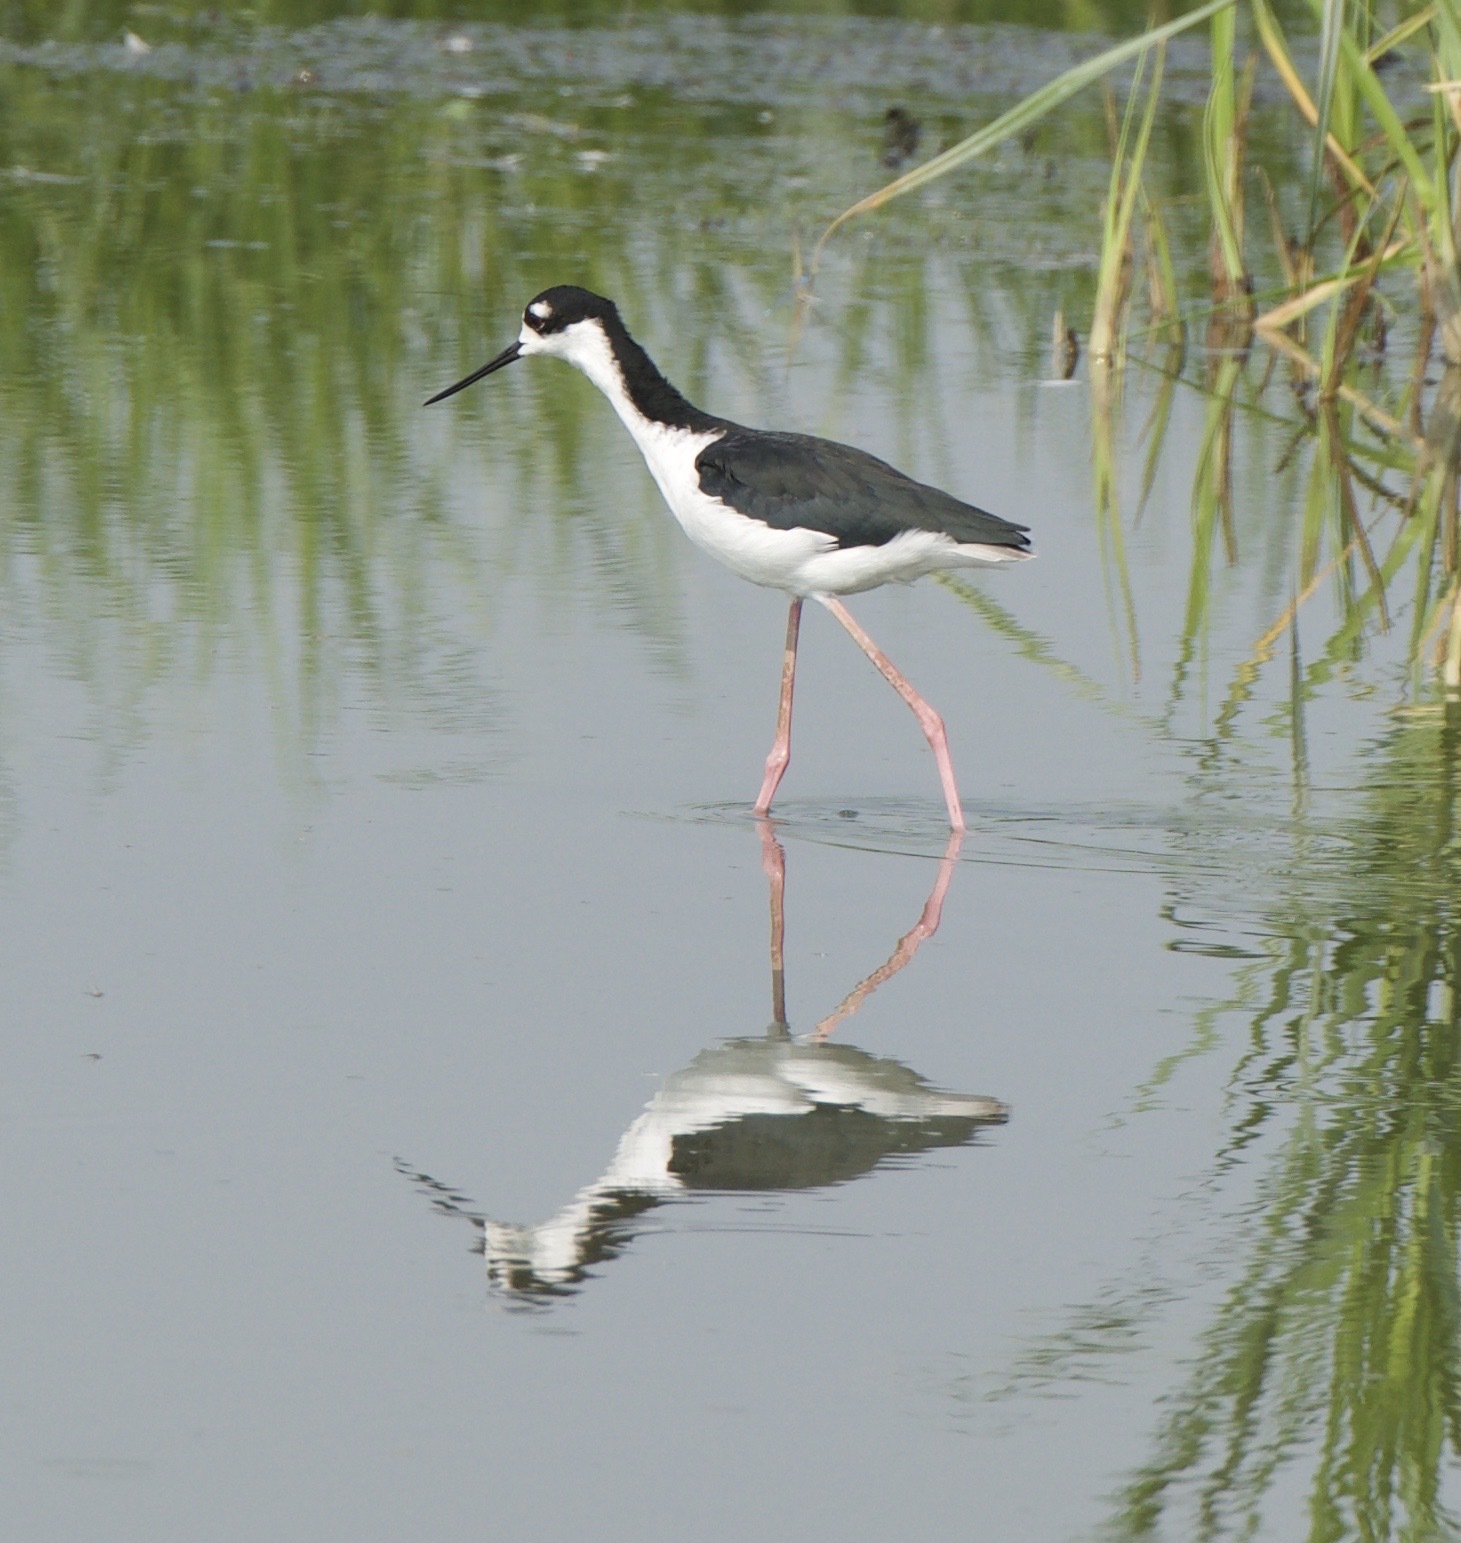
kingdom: Animalia
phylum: Chordata
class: Aves
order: Charadriiformes
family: Recurvirostridae
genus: Himantopus
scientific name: Himantopus mexicanus
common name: Black-necked stilt
